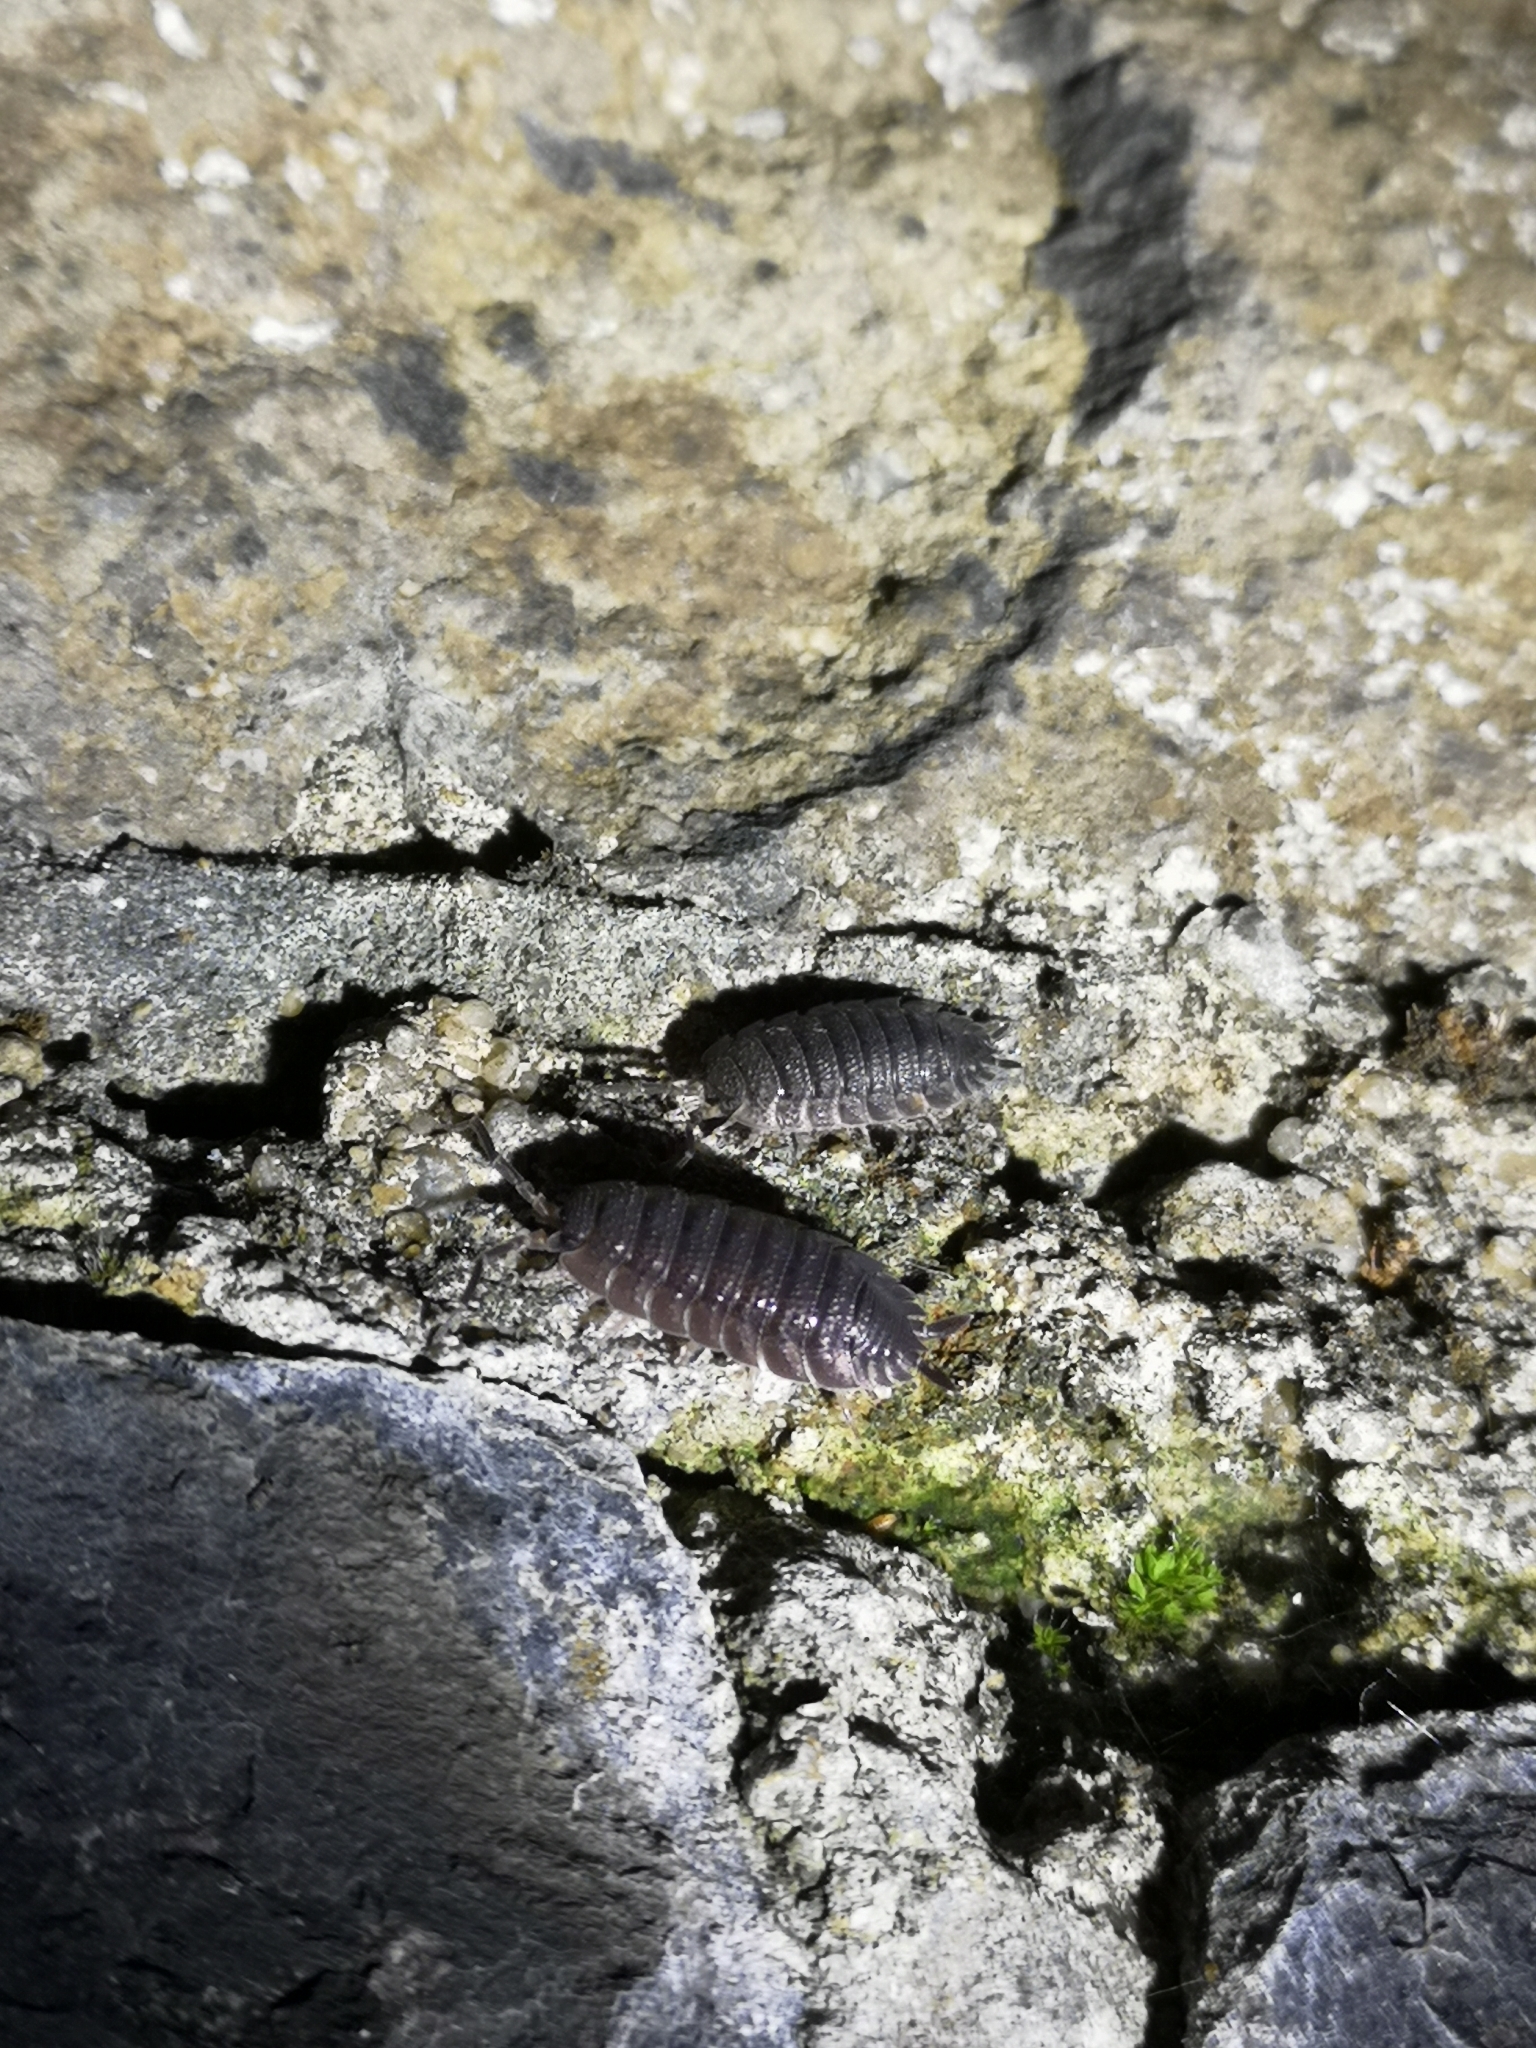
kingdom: Animalia
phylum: Arthropoda
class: Malacostraca
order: Isopoda
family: Porcellionidae
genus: Porcellio
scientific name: Porcellio scaber
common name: Common rough woodlouse
